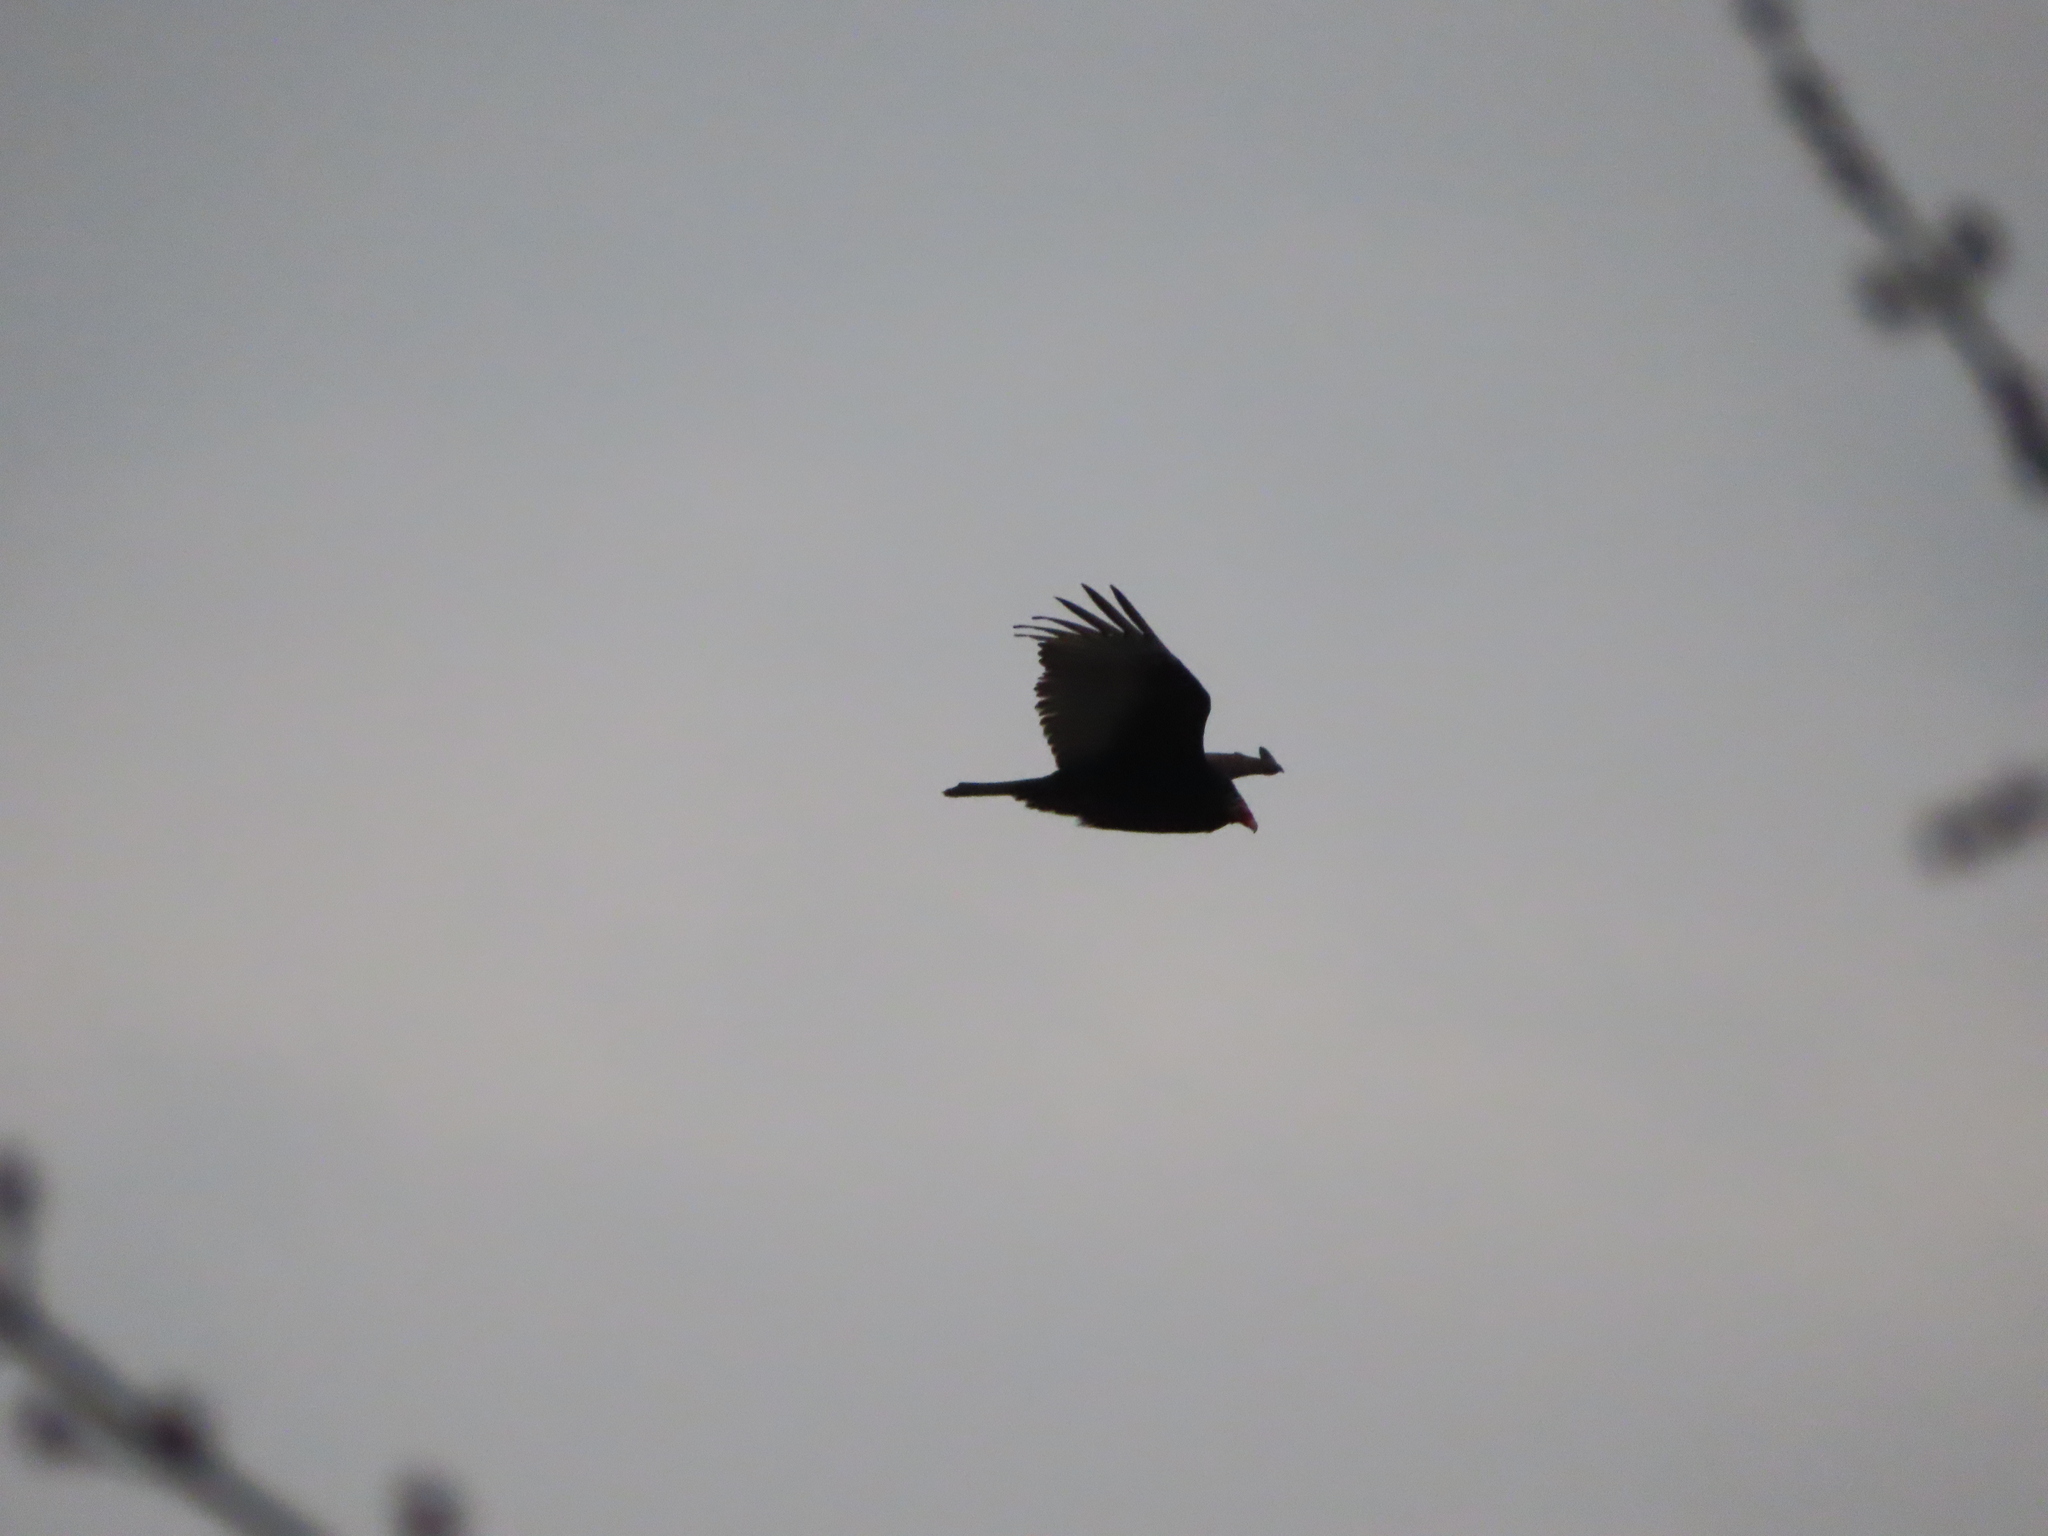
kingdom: Animalia
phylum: Chordata
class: Aves
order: Accipitriformes
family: Cathartidae
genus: Cathartes
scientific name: Cathartes aura
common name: Turkey vulture
